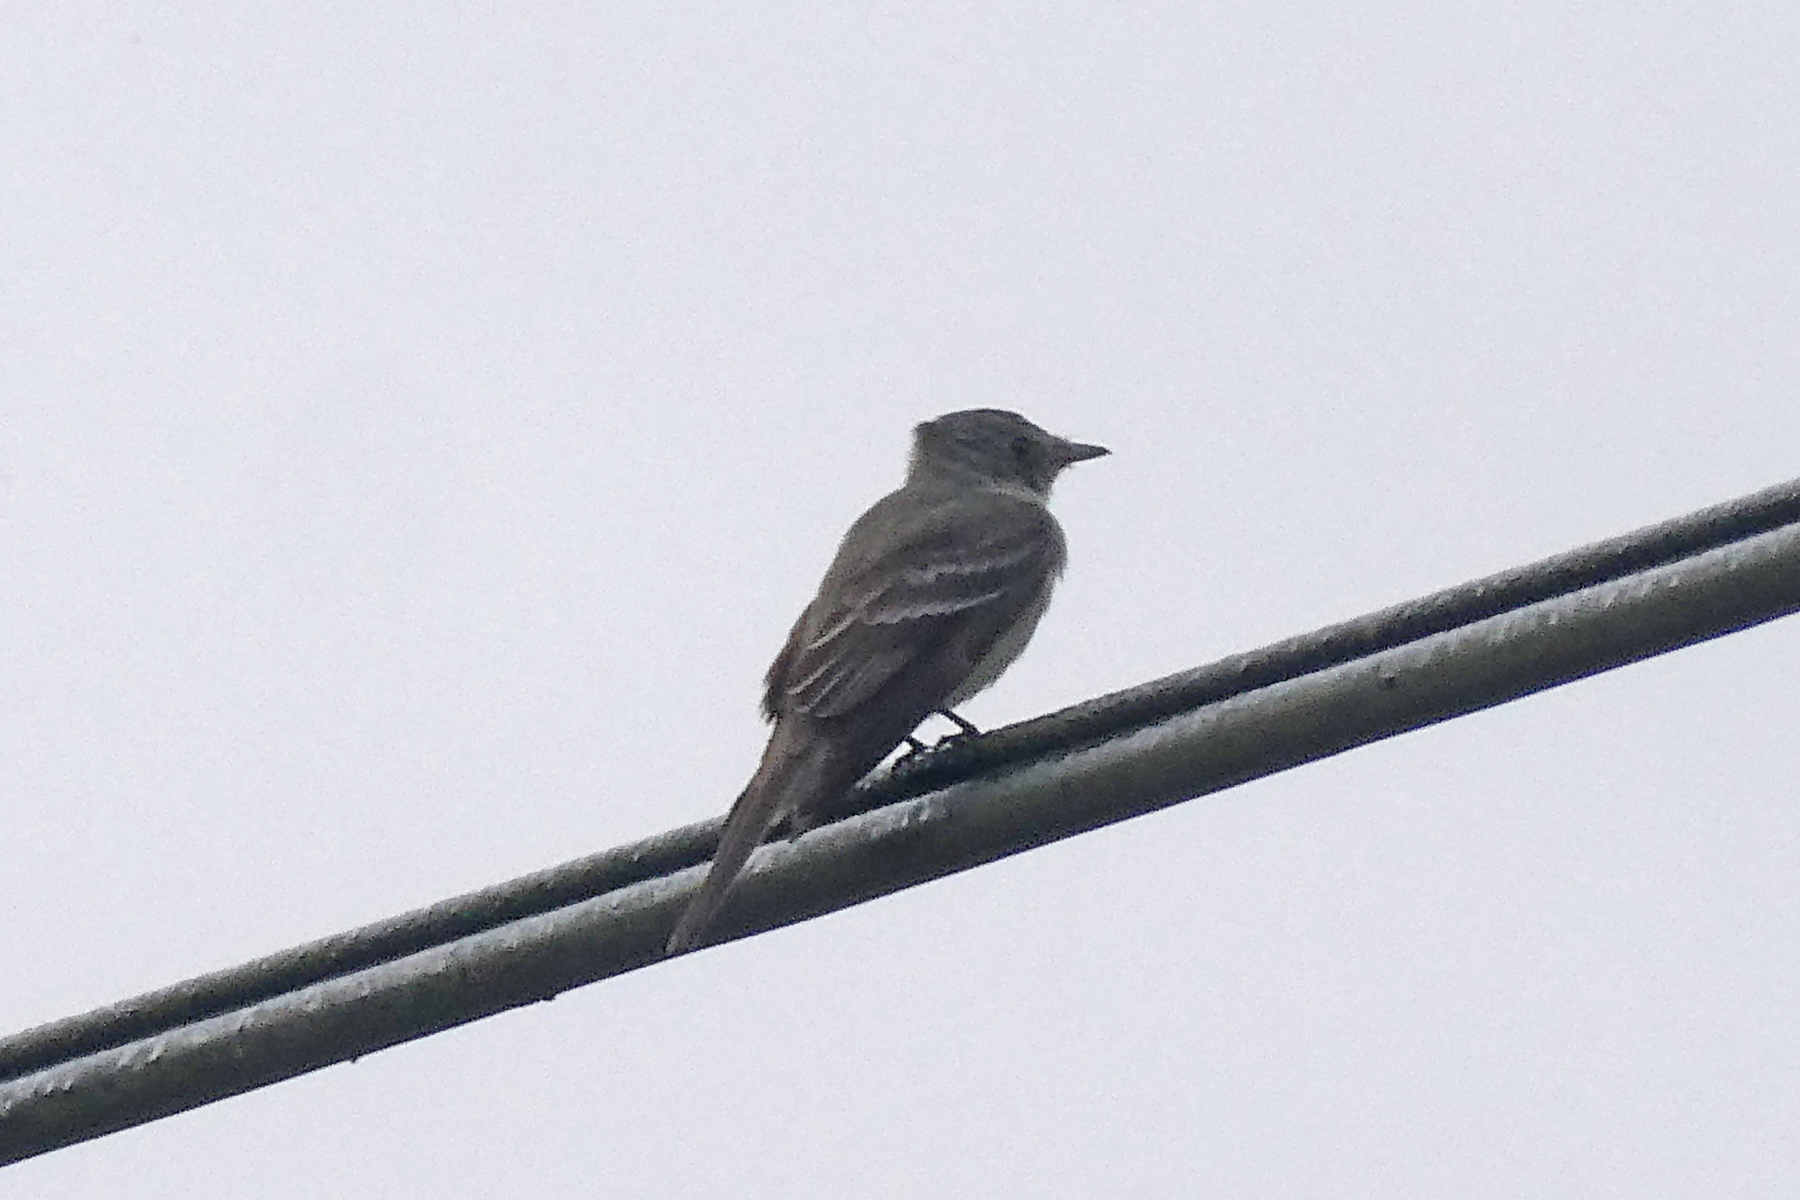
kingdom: Animalia
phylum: Chordata
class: Aves
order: Passeriformes
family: Tyrannidae
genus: Contopus
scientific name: Contopus virens
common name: Eastern wood-pewee
